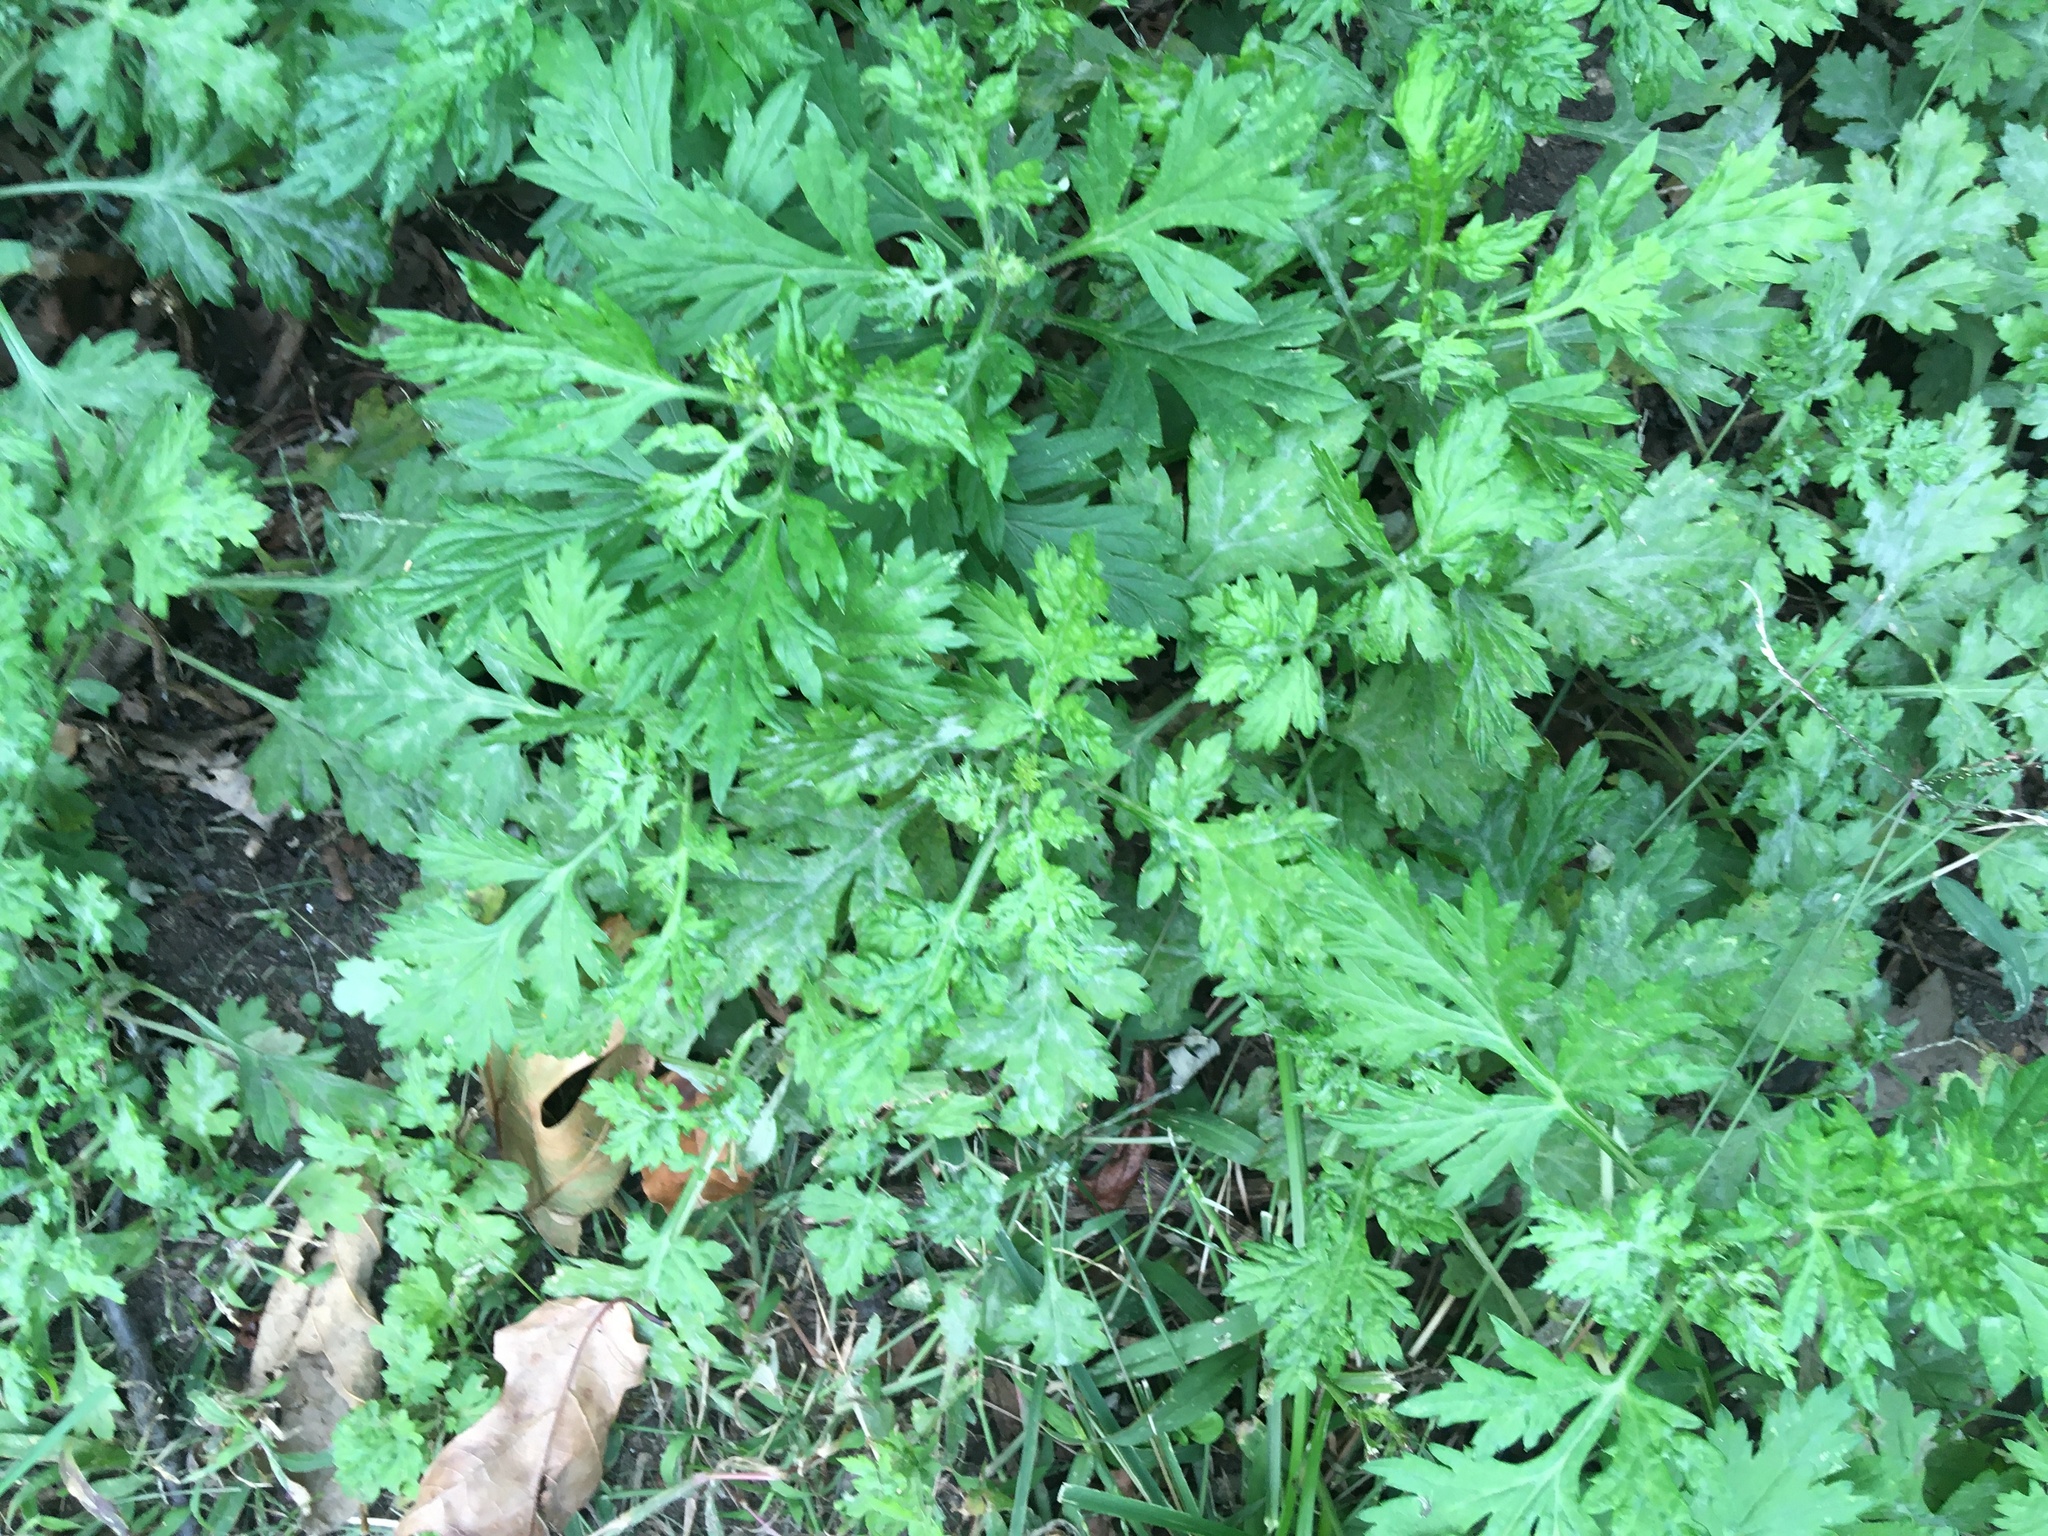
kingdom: Plantae
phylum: Tracheophyta
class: Magnoliopsida
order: Asterales
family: Asteraceae
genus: Artemisia
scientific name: Artemisia vulgaris
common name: Mugwort
